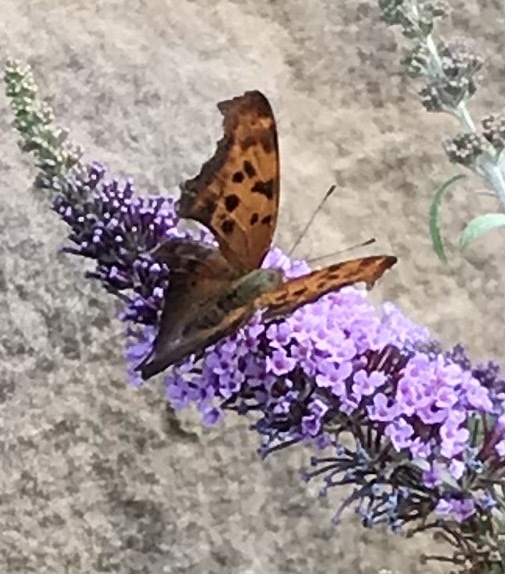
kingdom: Animalia
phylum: Arthropoda
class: Insecta
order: Lepidoptera
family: Nymphalidae
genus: Polygonia
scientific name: Polygonia interrogationis
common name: Question mark
